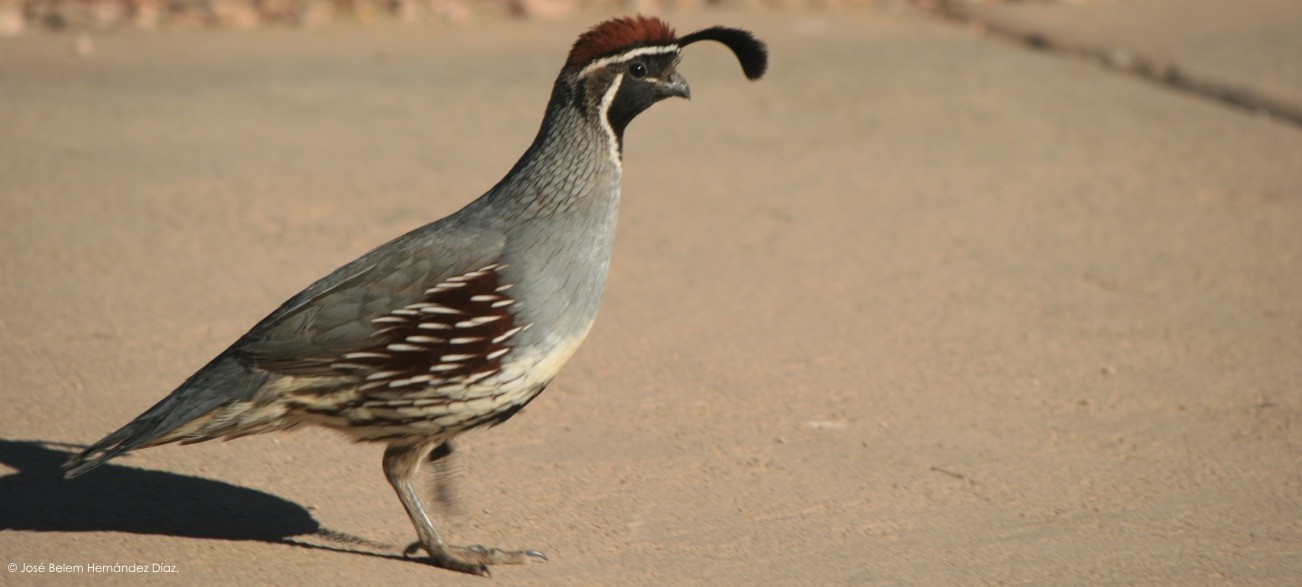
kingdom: Animalia
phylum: Chordata
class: Aves
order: Galliformes
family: Odontophoridae
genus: Callipepla
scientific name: Callipepla gambelii
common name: Gambel's quail
